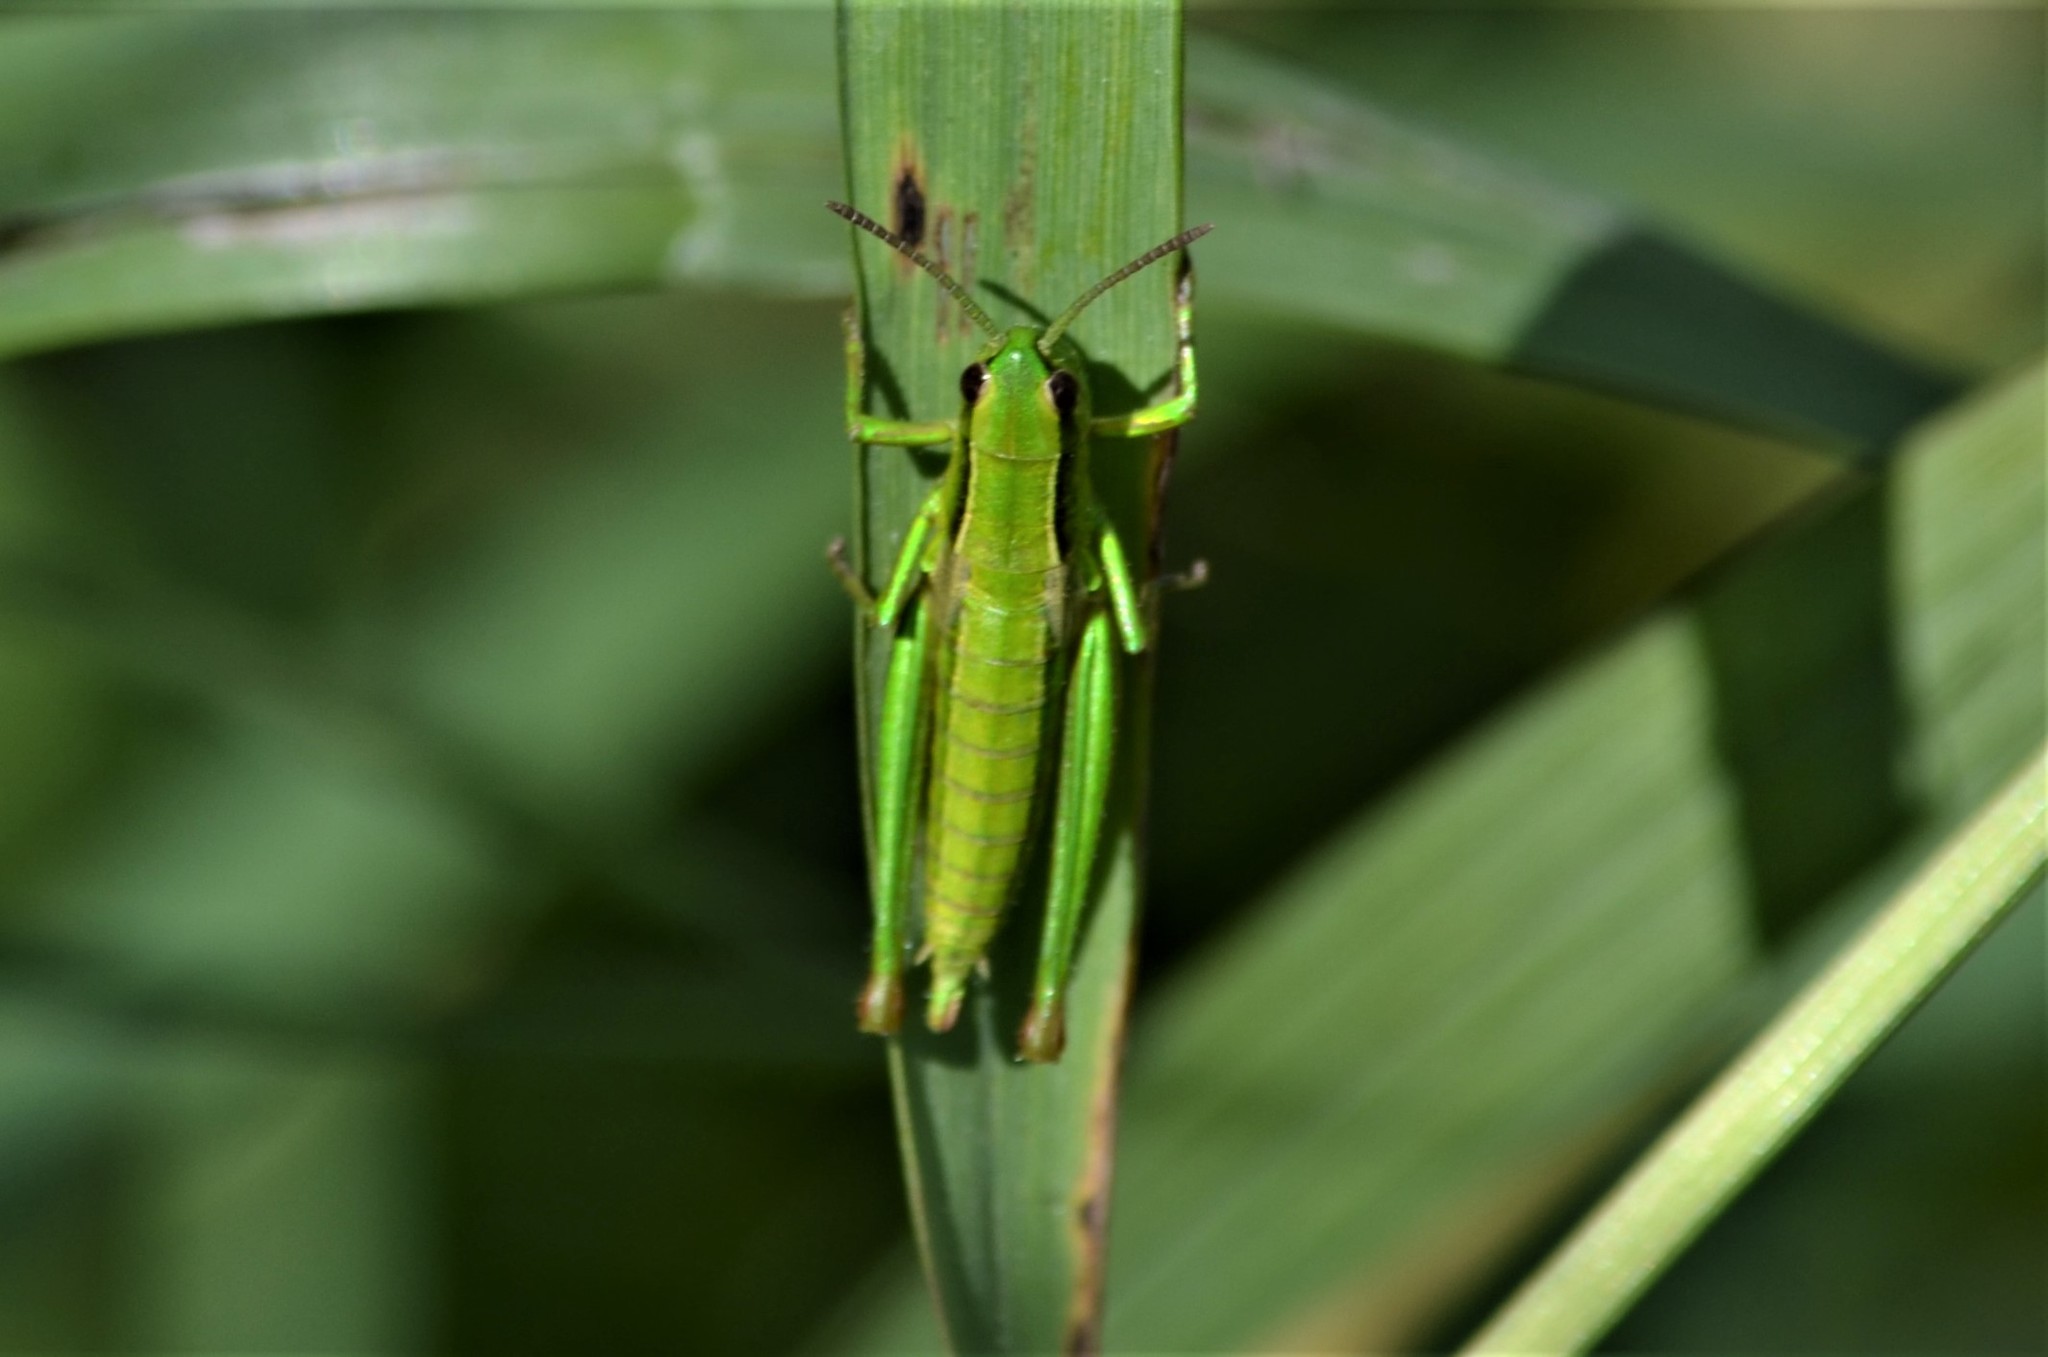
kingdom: Animalia
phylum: Arthropoda
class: Insecta
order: Orthoptera
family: Acrididae
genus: Euthystira
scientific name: Euthystira brachyptera
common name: Small gold grasshopper
